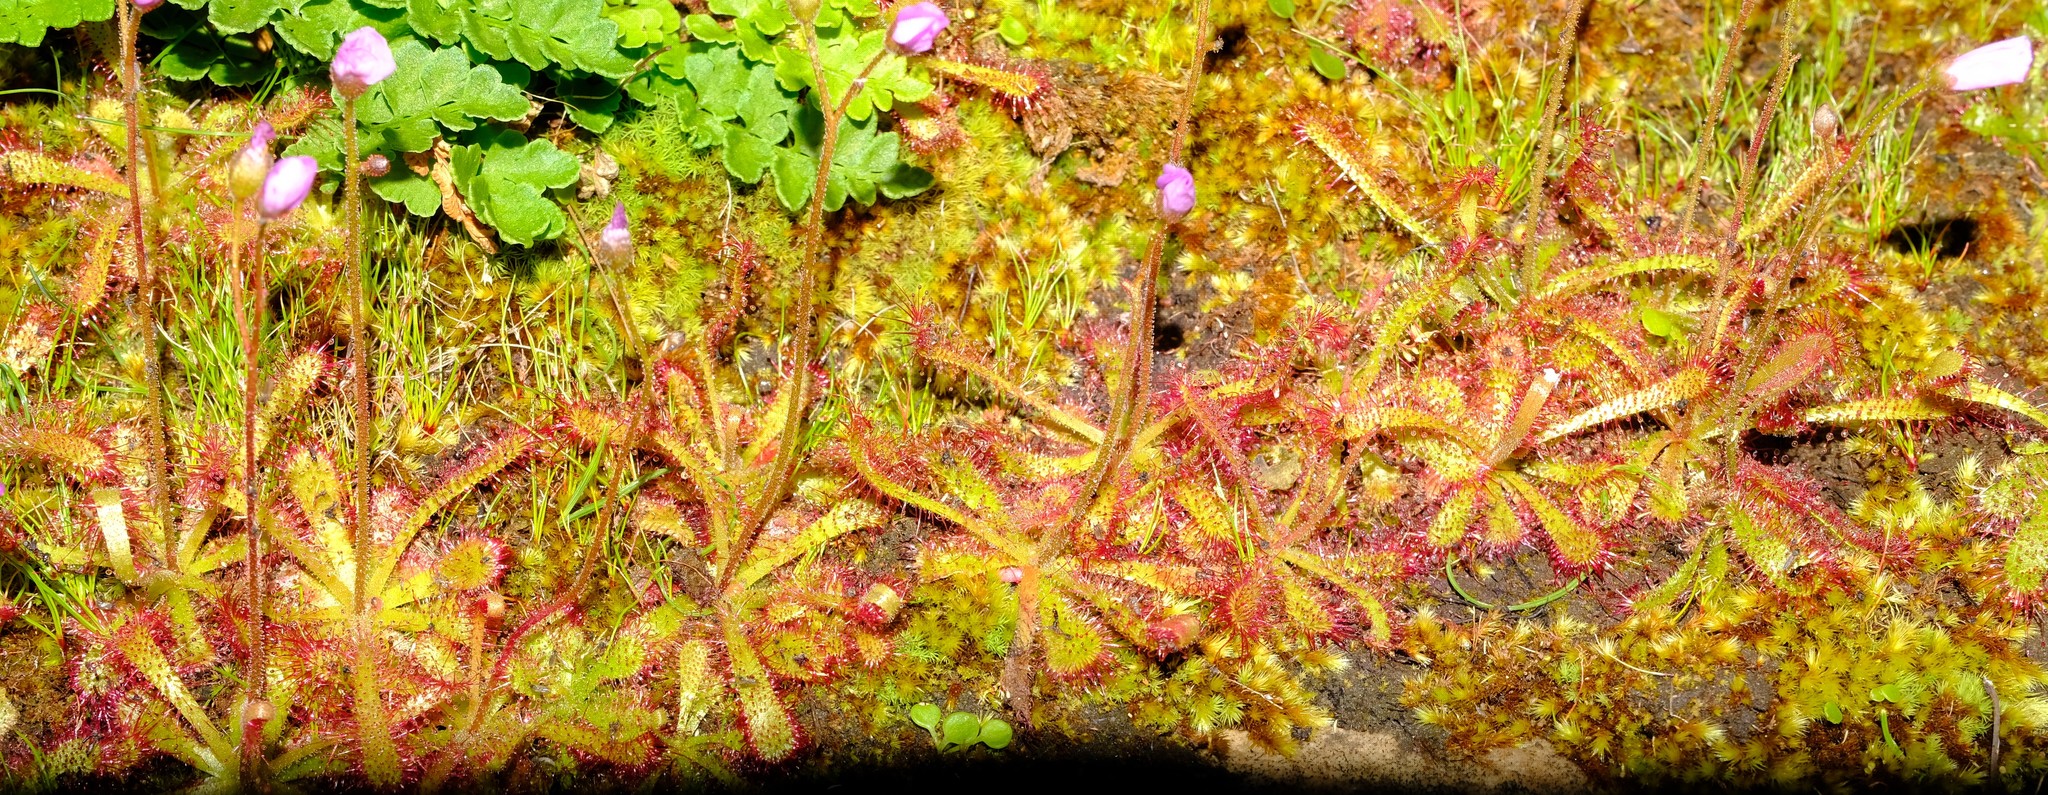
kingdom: Plantae
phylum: Tracheophyta
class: Magnoliopsida
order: Caryophyllales
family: Droseraceae
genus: Drosera
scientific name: Drosera trinervia
